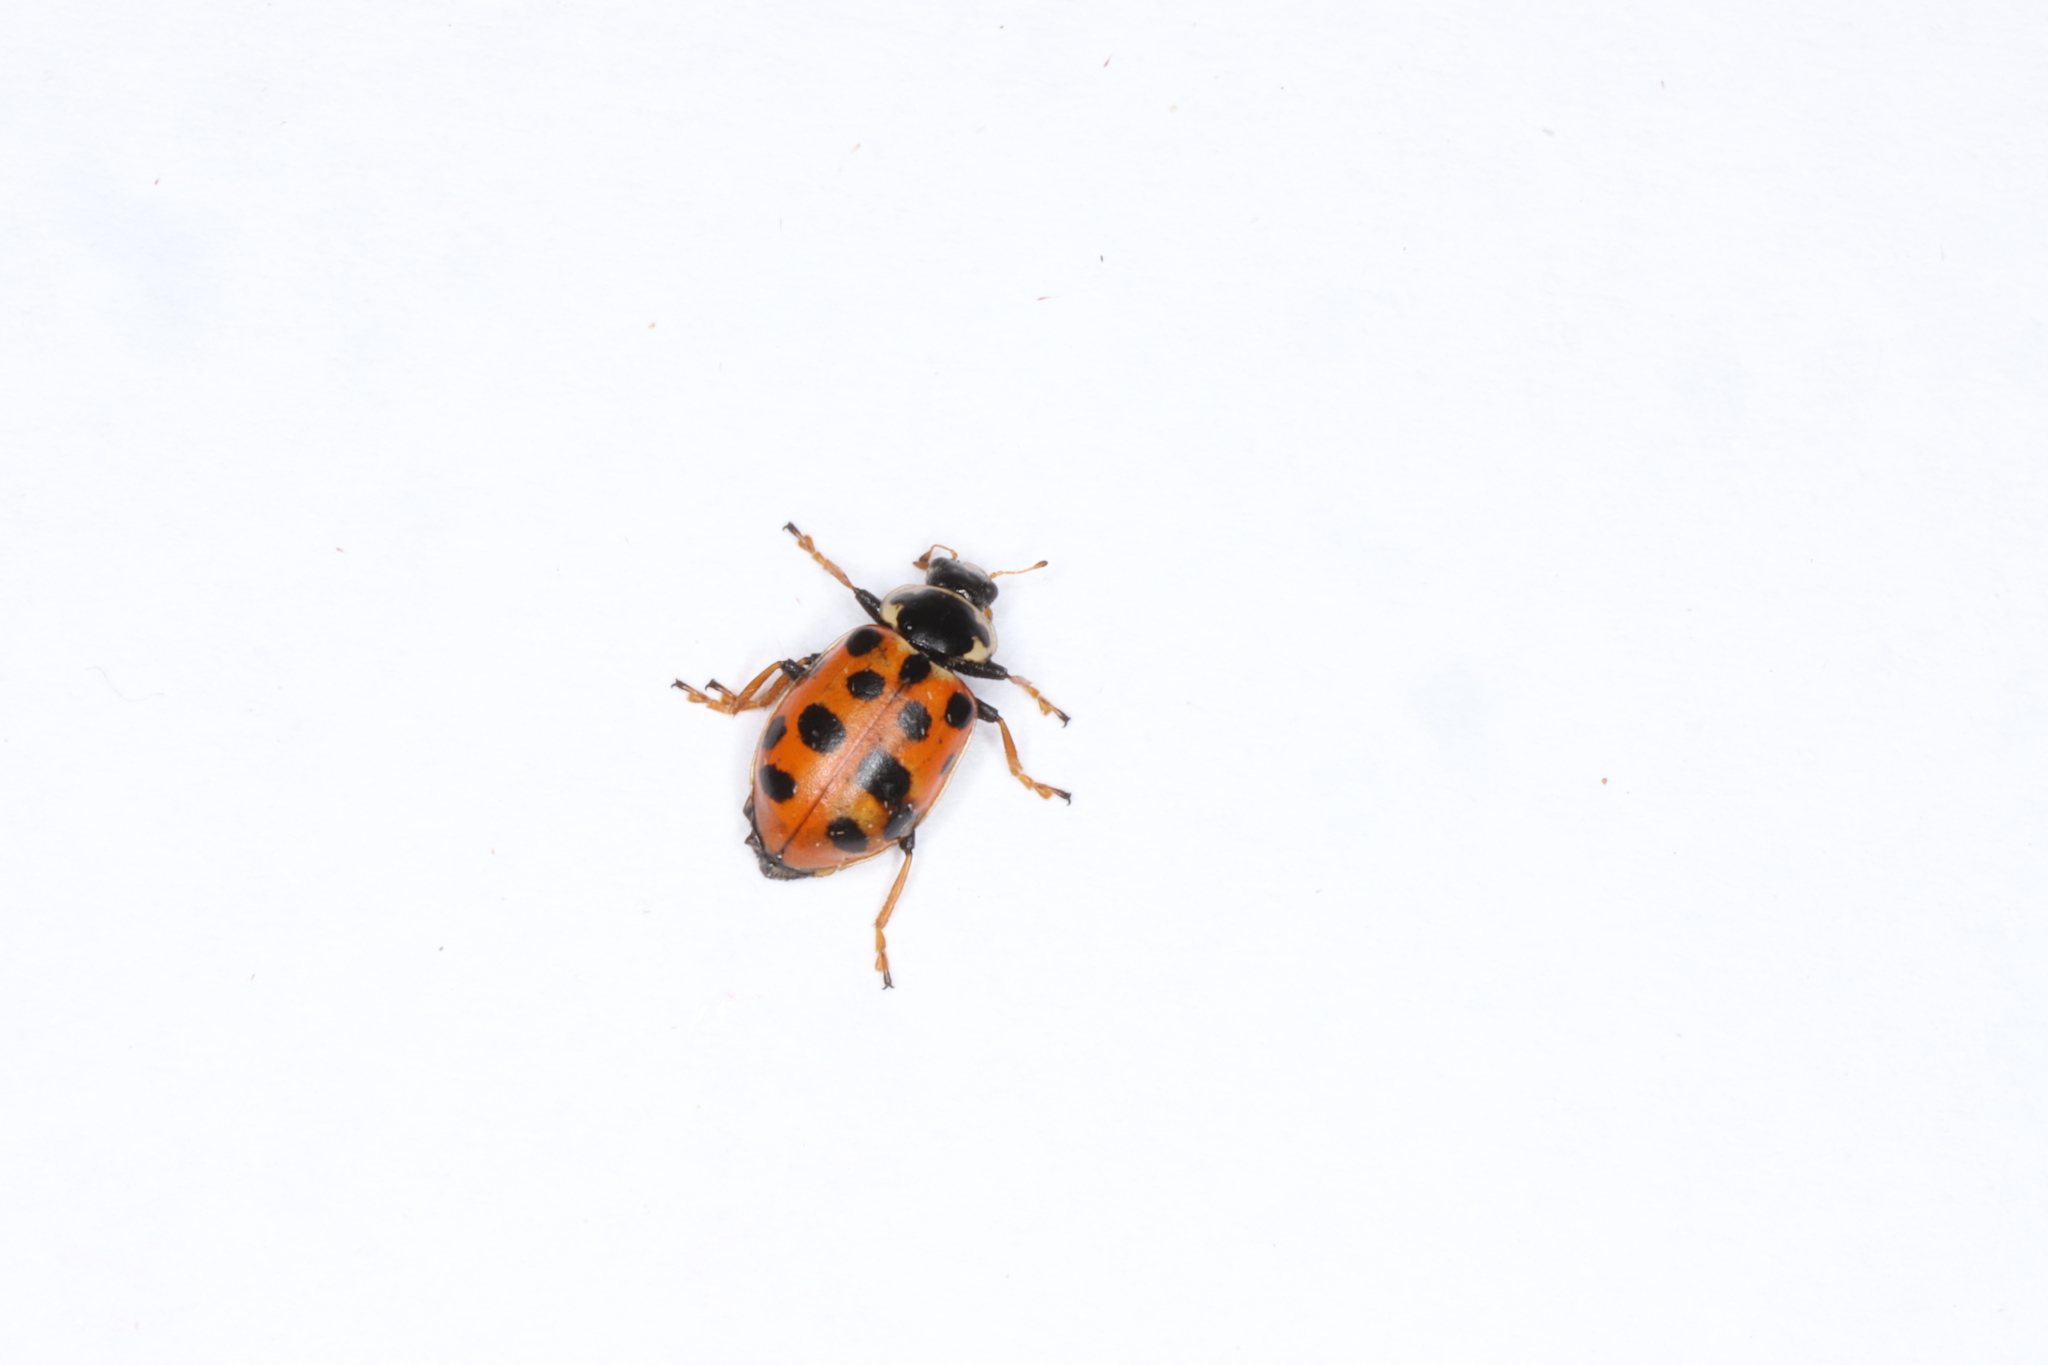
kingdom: Animalia
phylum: Arthropoda
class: Insecta
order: Coleoptera
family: Coccinellidae
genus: Hippodamia
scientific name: Hippodamia tredecimpunctata
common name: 13-spot ladybird
